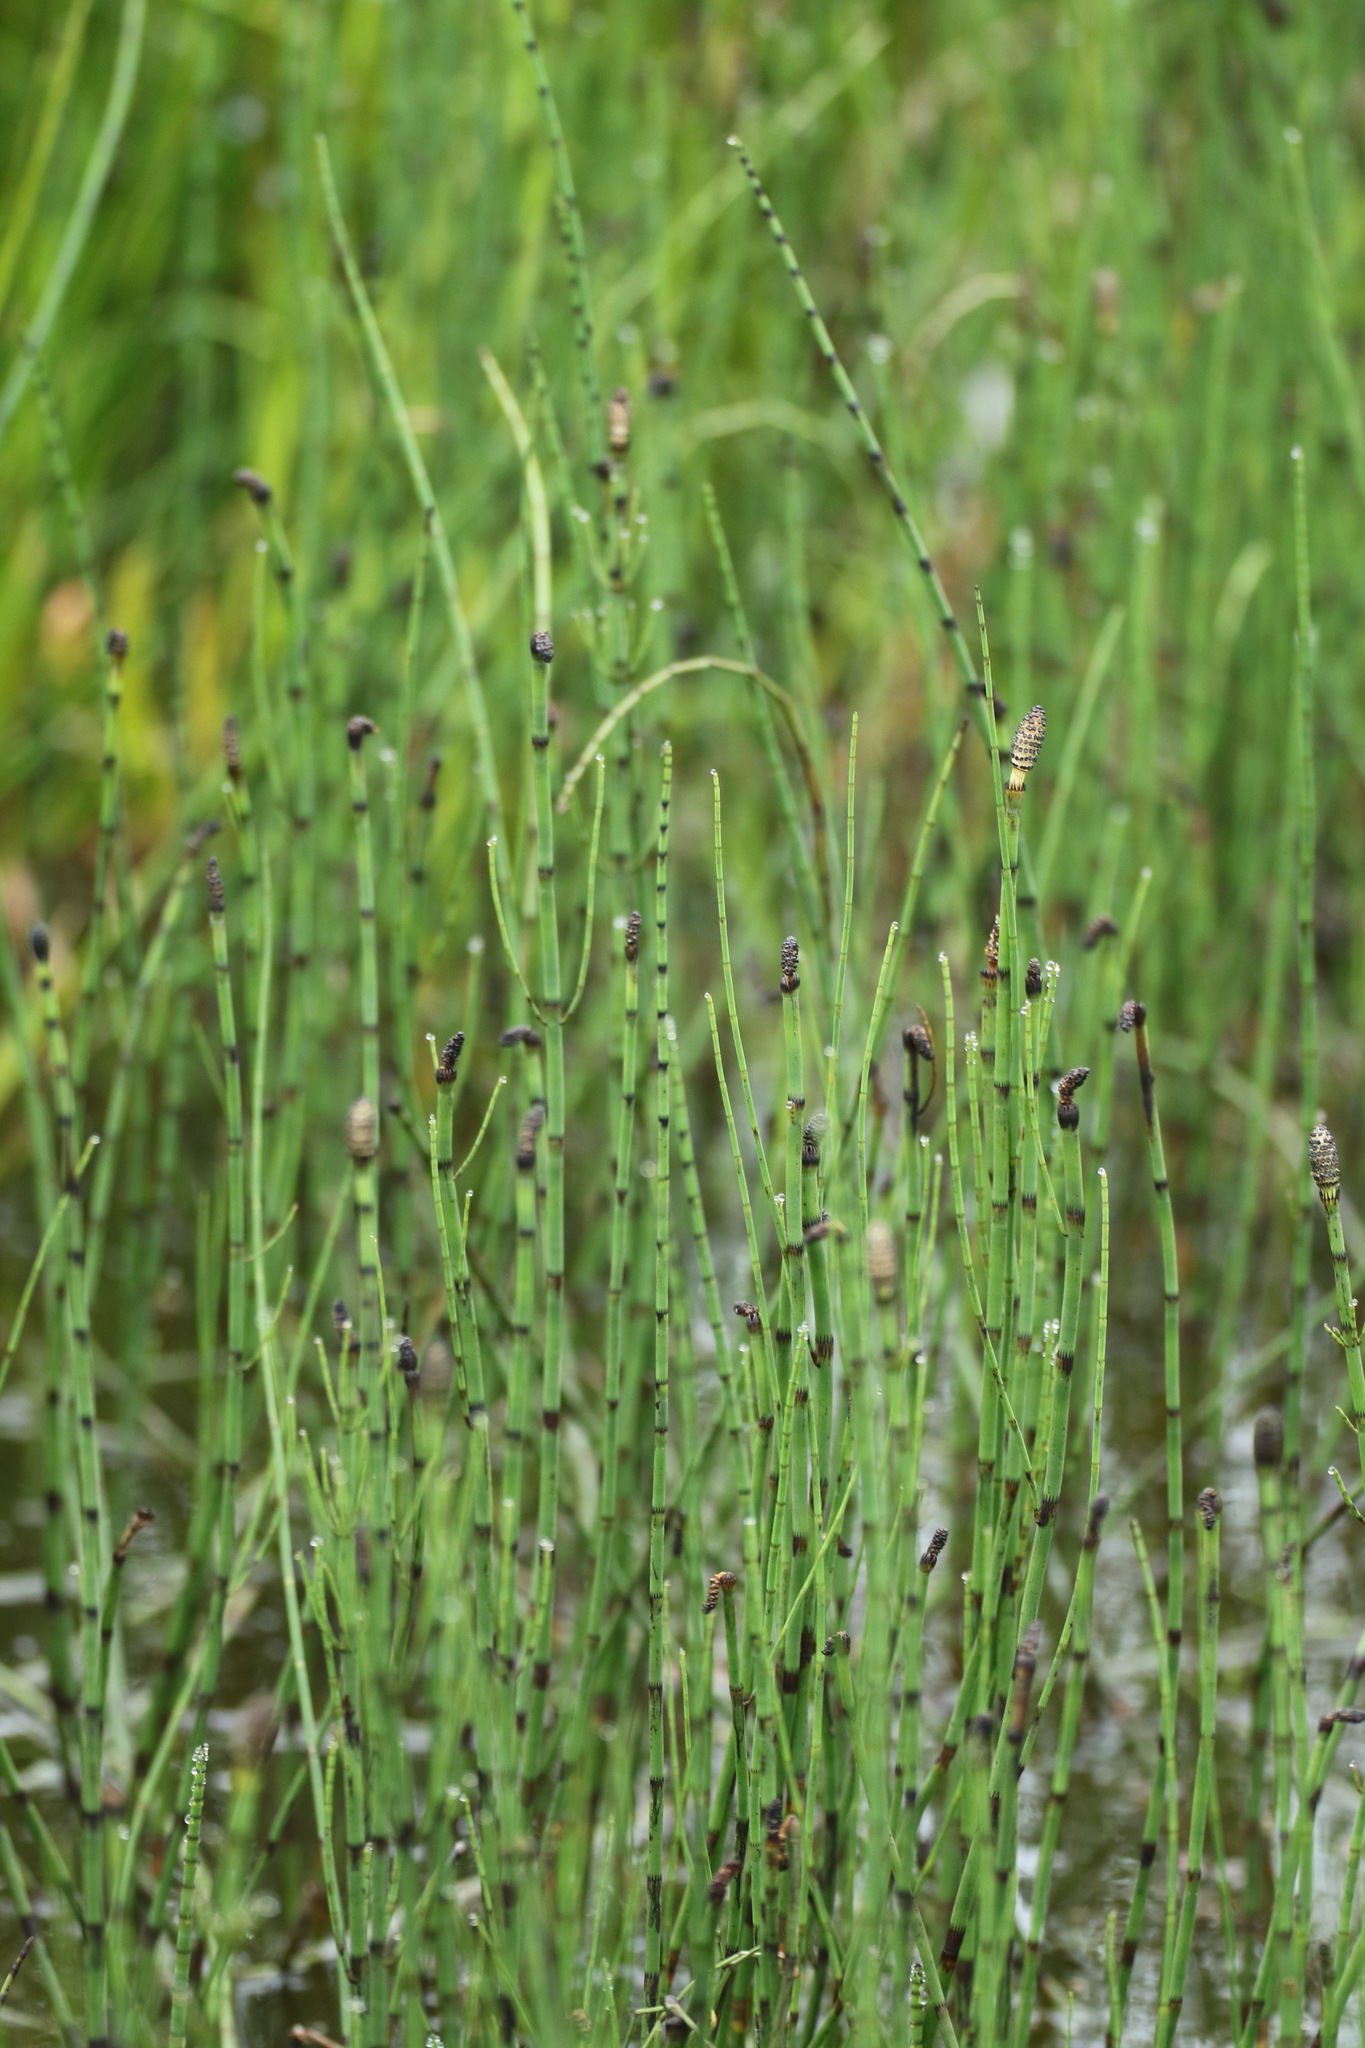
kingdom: Plantae
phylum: Tracheophyta
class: Polypodiopsida
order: Equisetales
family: Equisetaceae
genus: Equisetum
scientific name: Equisetum fluviatile
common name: Water horsetail
